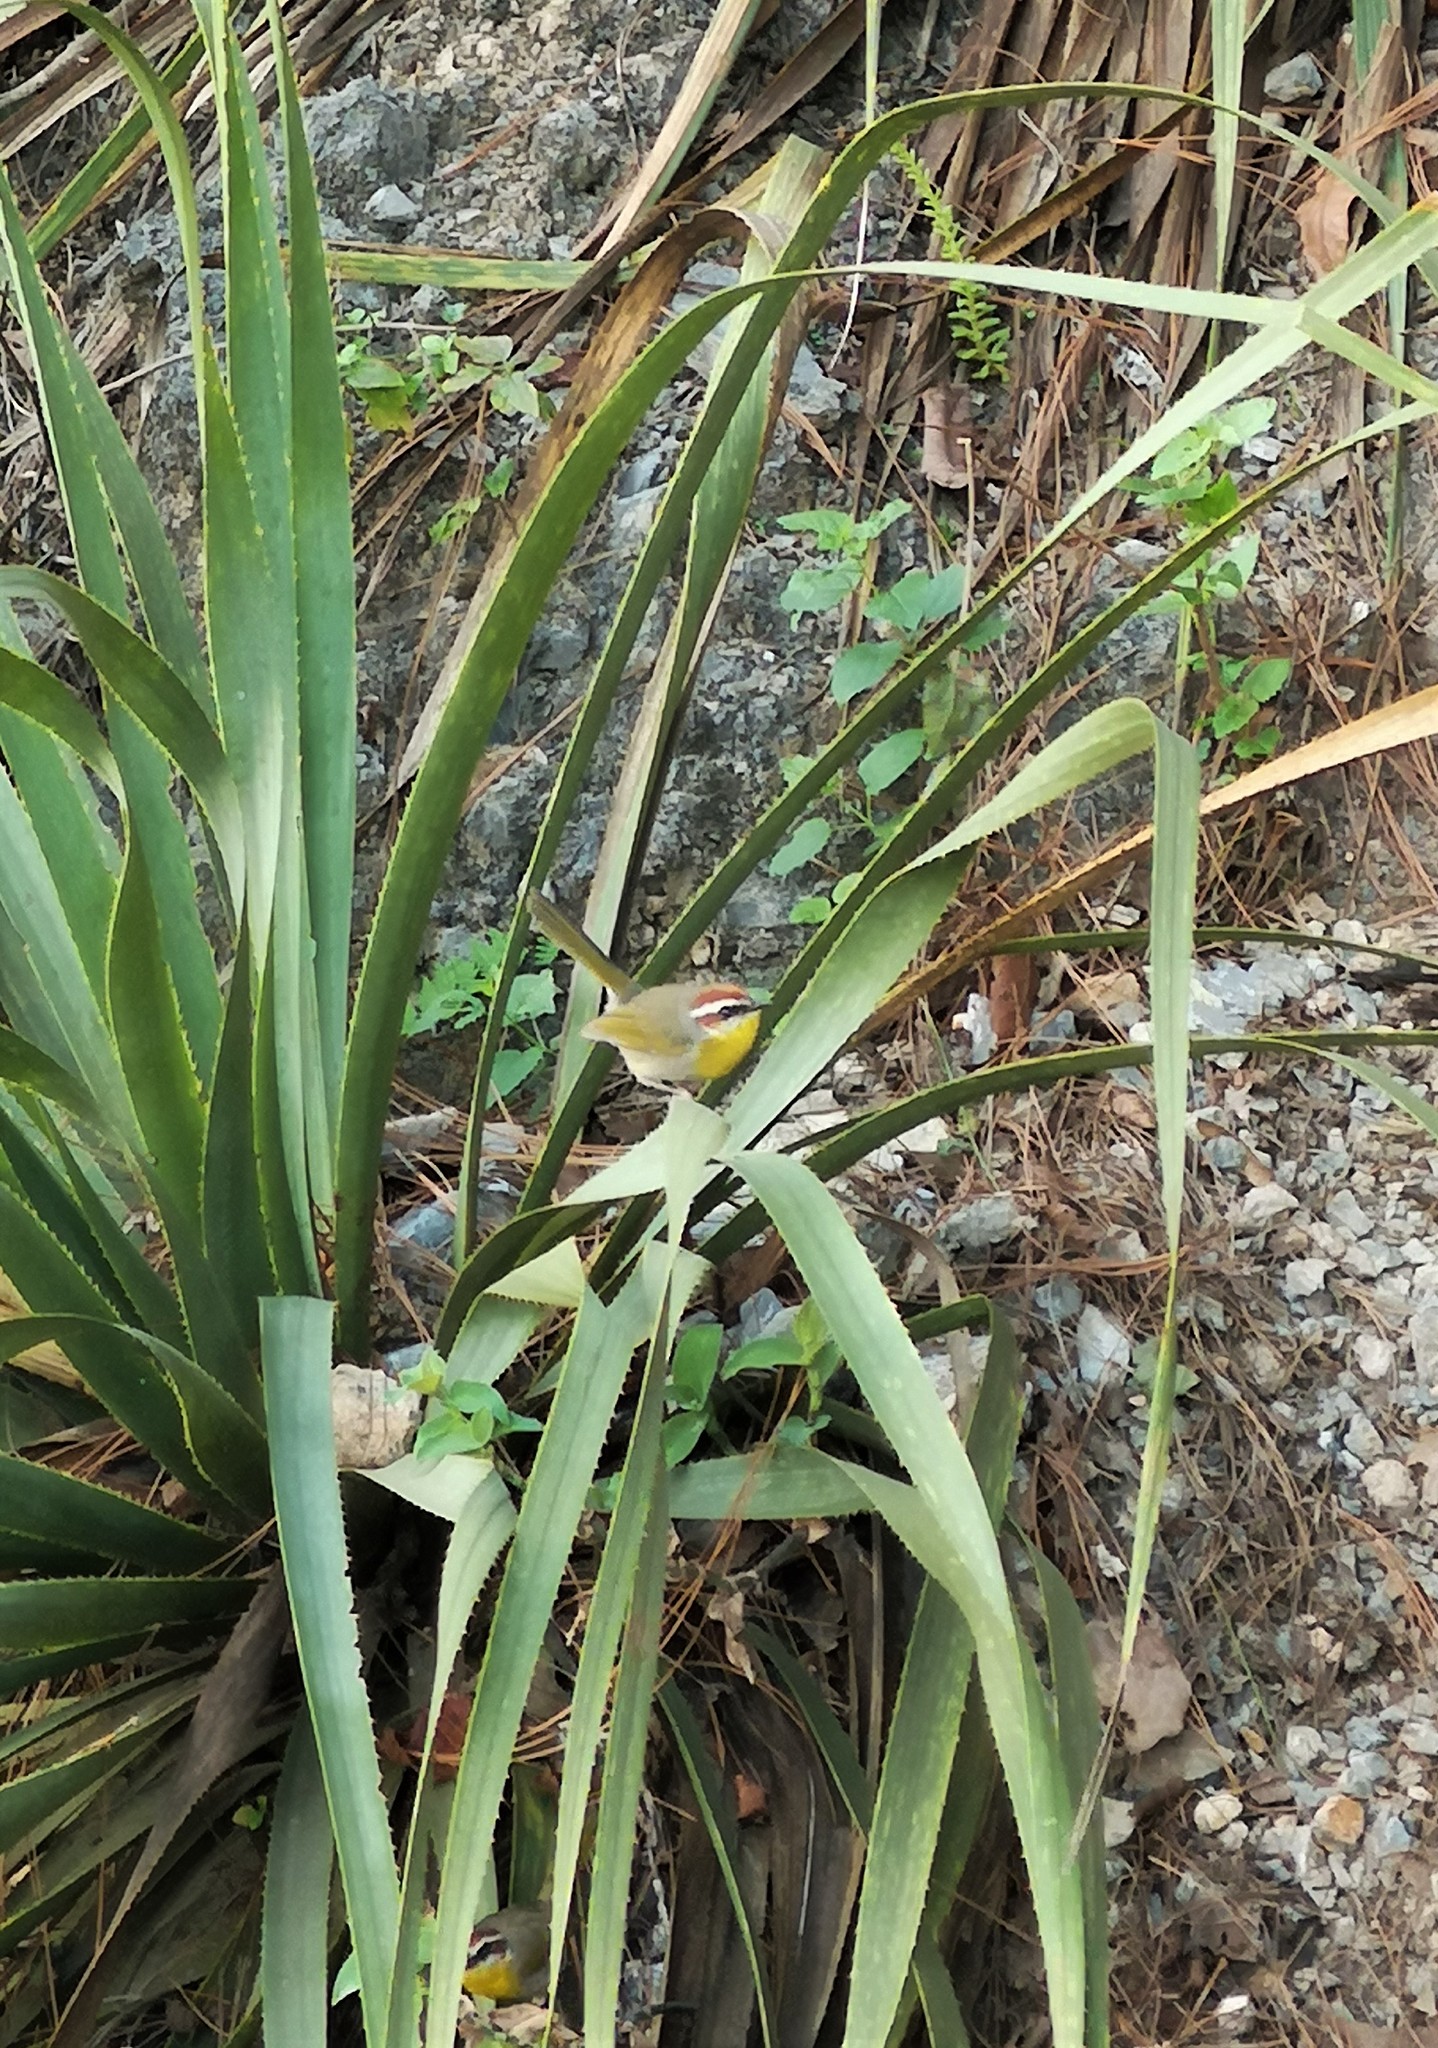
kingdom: Animalia
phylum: Chordata
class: Aves
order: Passeriformes
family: Parulidae
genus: Basileuterus
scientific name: Basileuterus rufifrons
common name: Rufous-capped warbler
